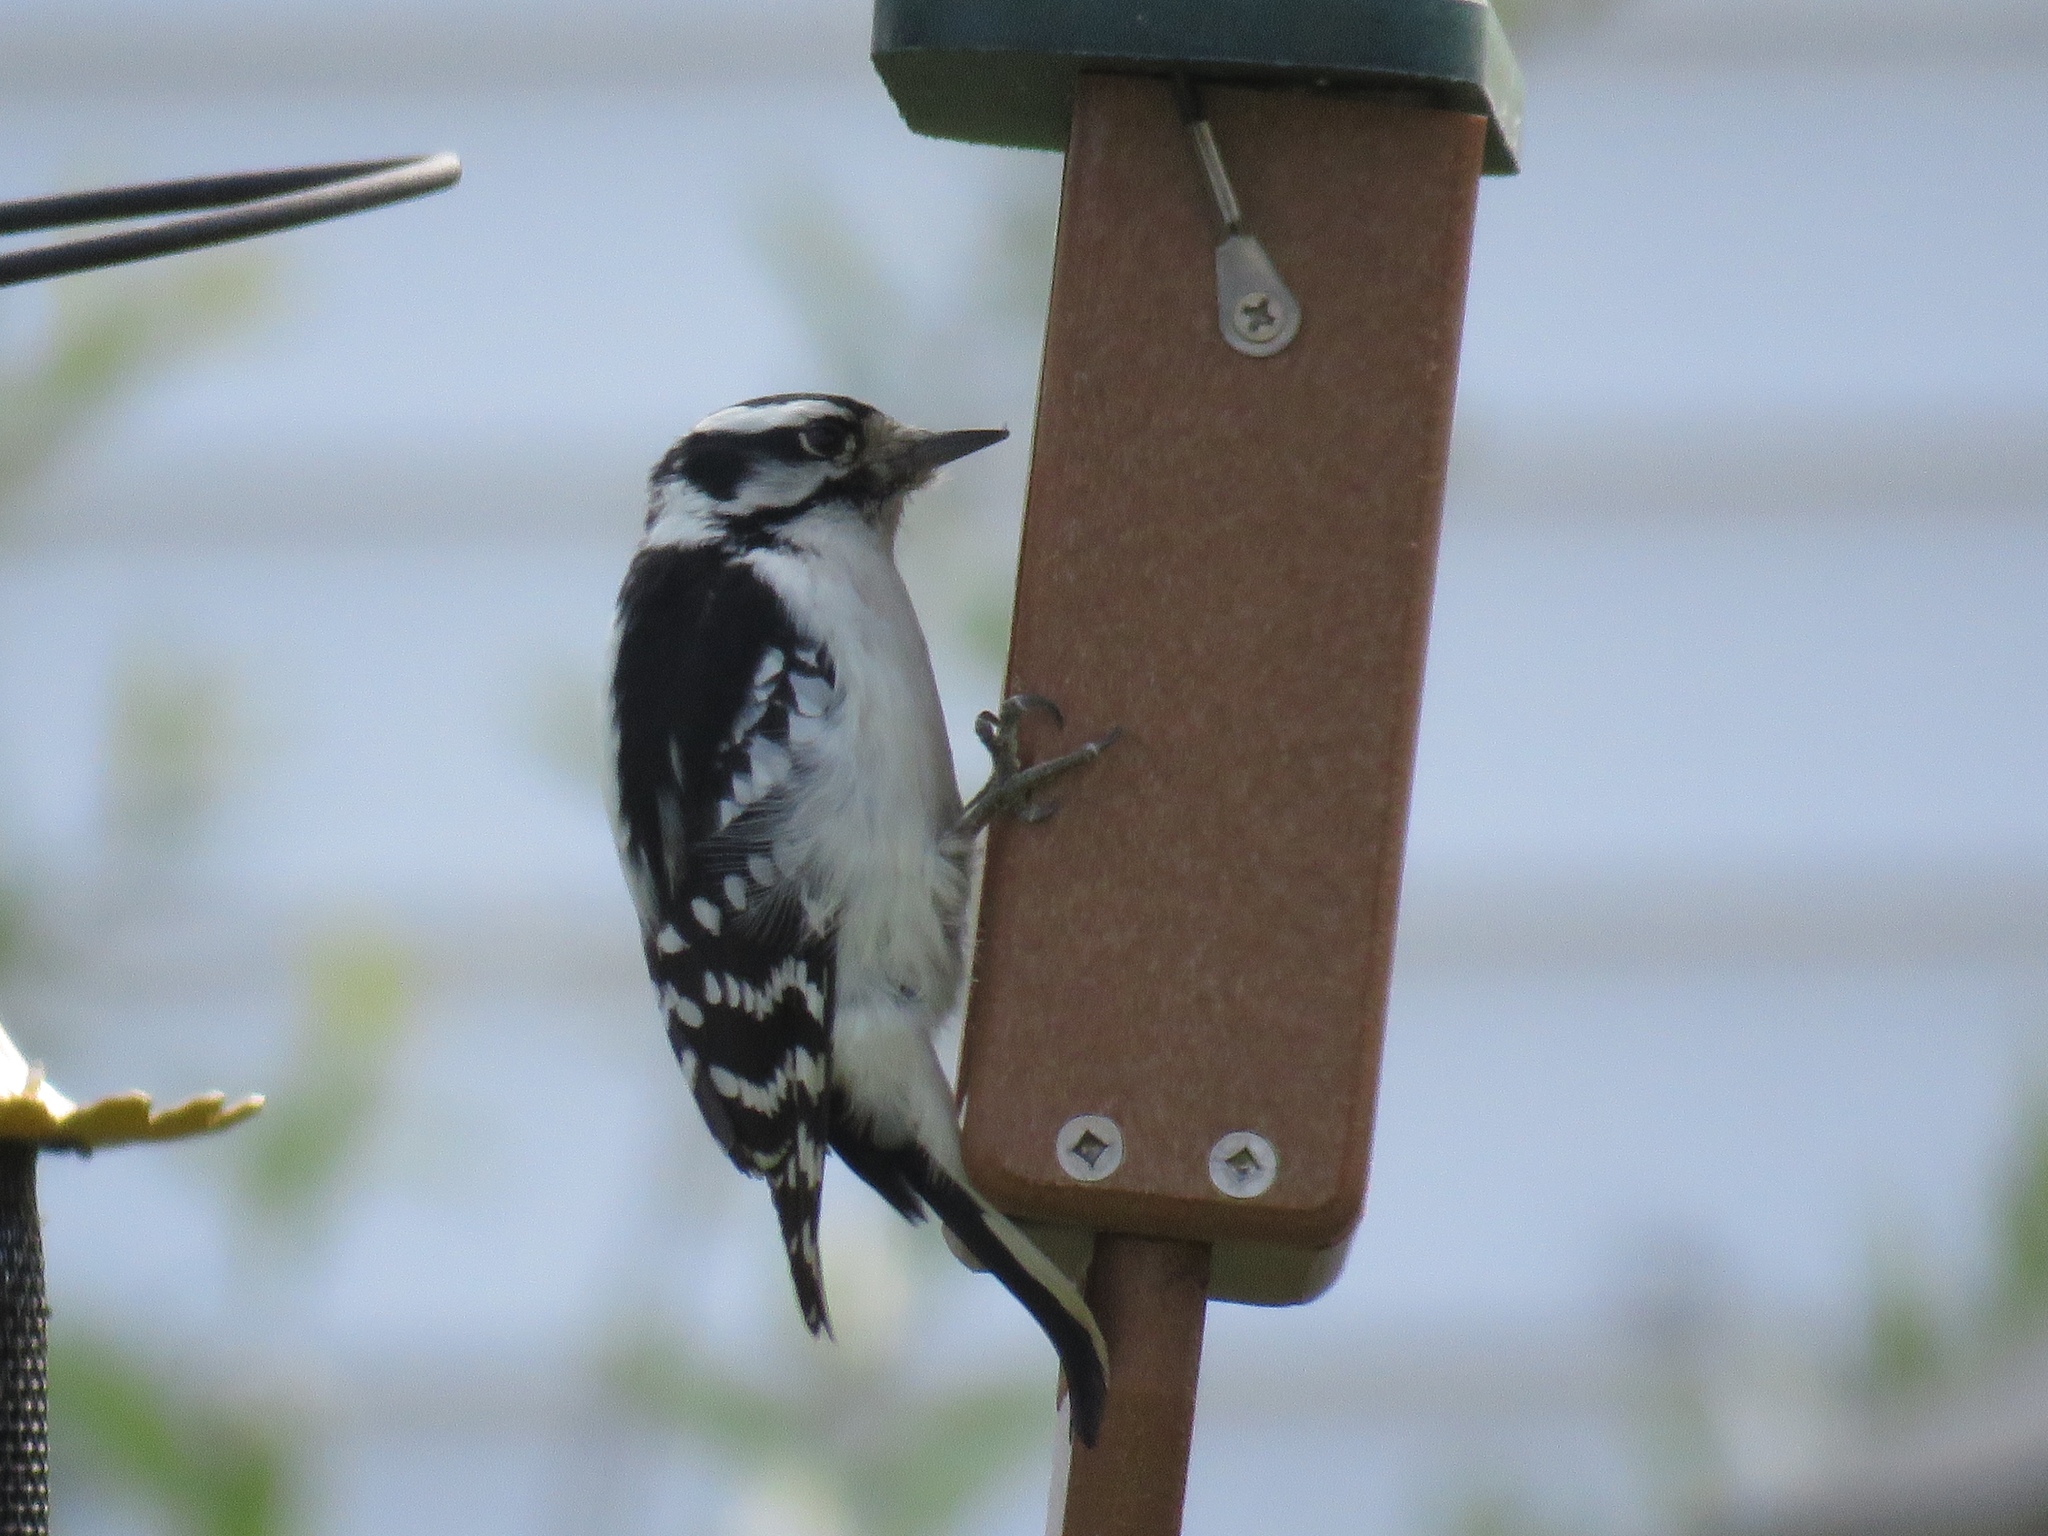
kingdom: Animalia
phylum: Chordata
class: Aves
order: Piciformes
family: Picidae
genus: Dryobates
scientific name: Dryobates pubescens
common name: Downy woodpecker
